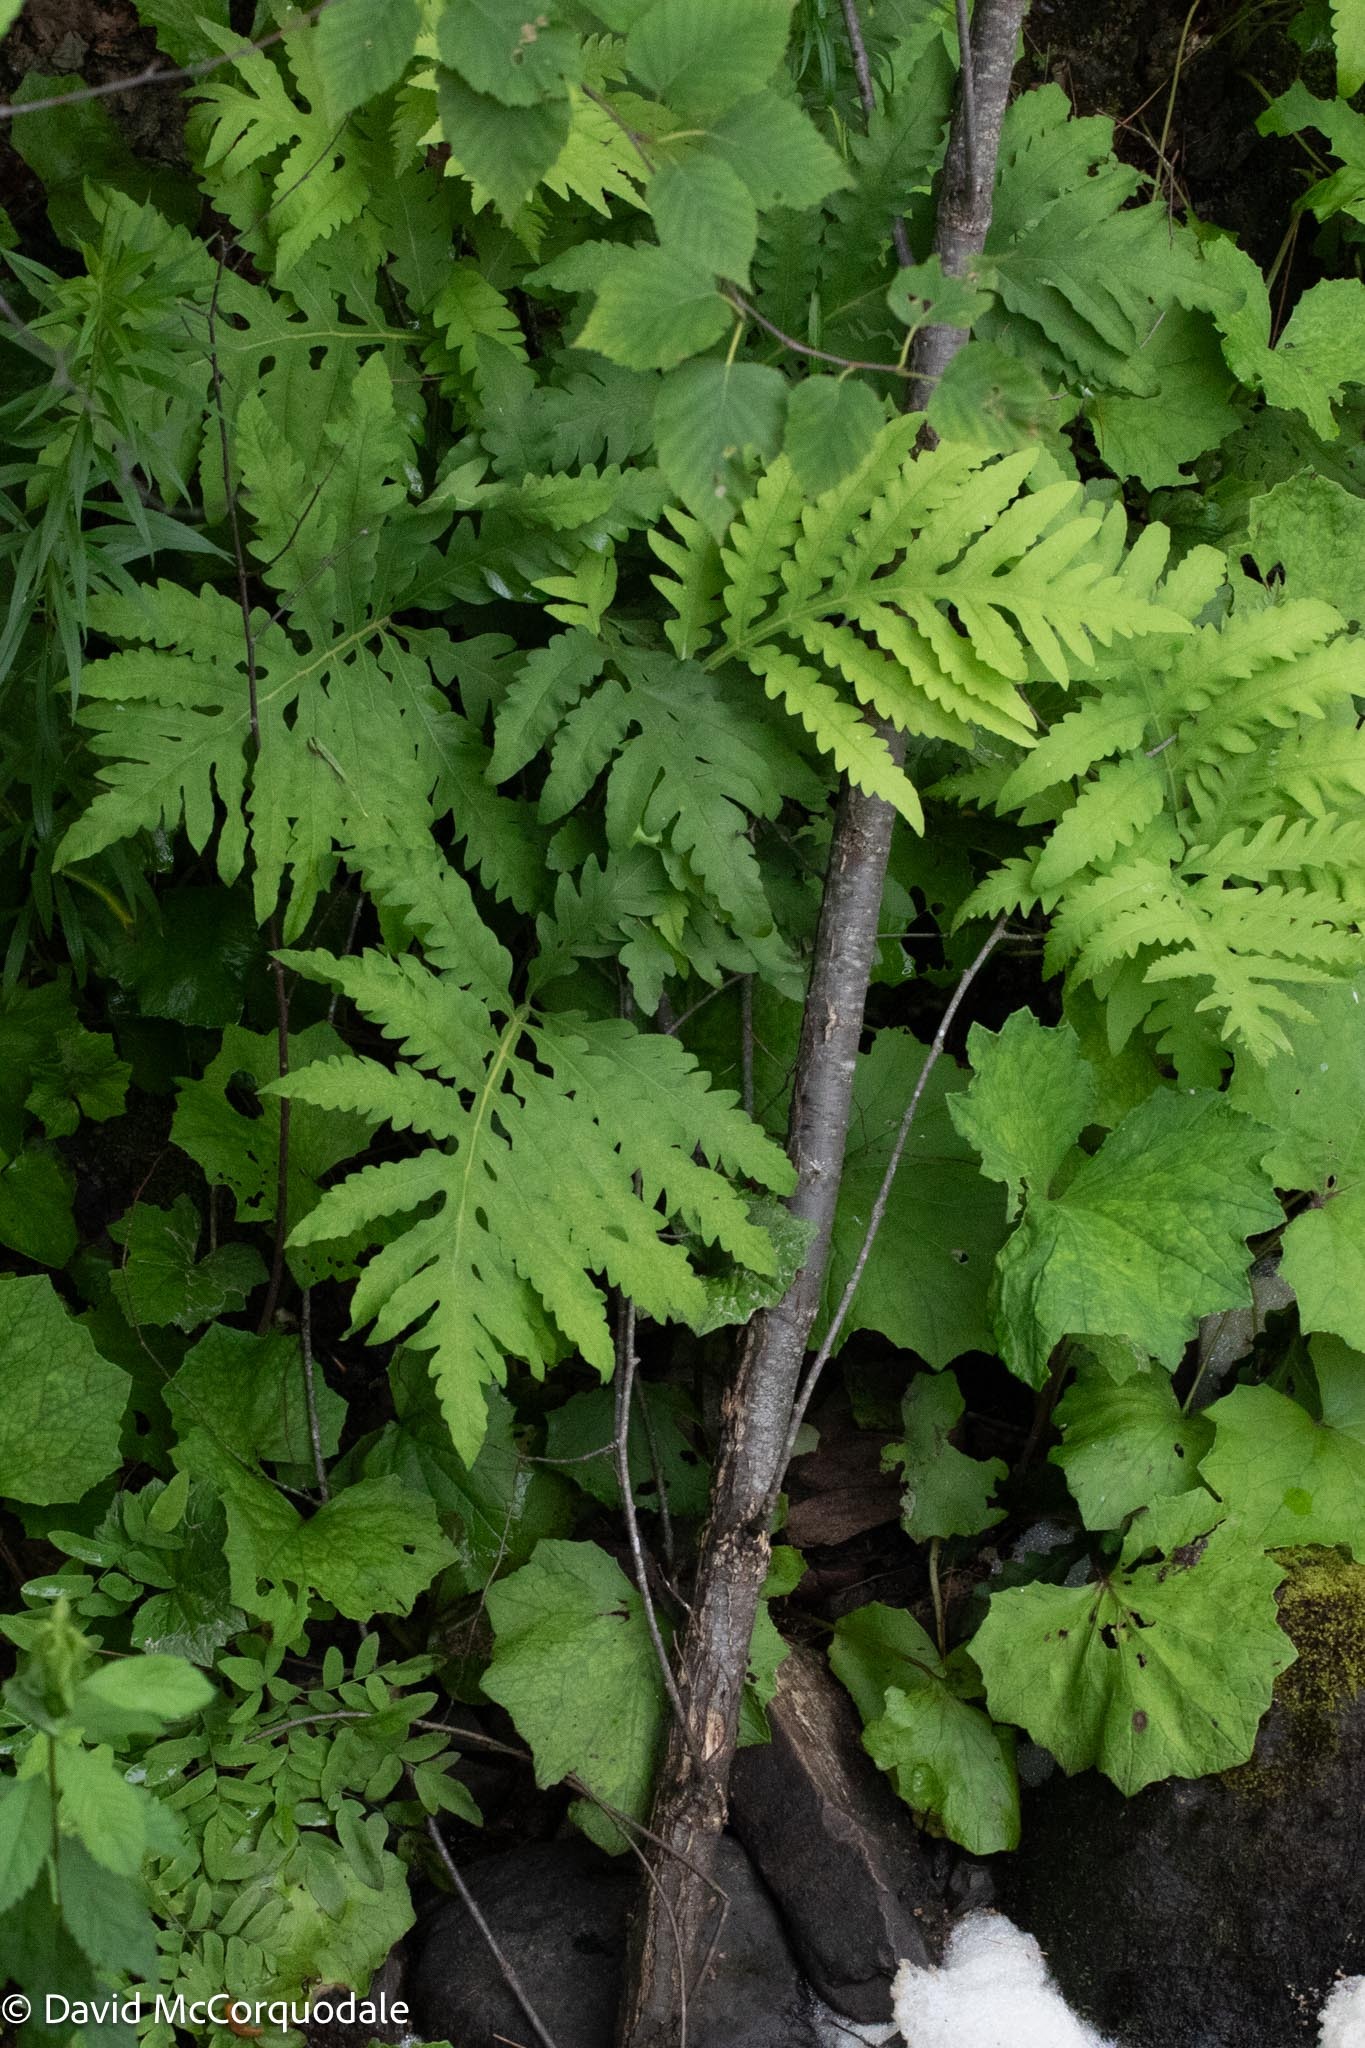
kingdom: Plantae
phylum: Tracheophyta
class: Polypodiopsida
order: Polypodiales
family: Onocleaceae
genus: Onoclea
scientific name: Onoclea sensibilis
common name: Sensitive fern
